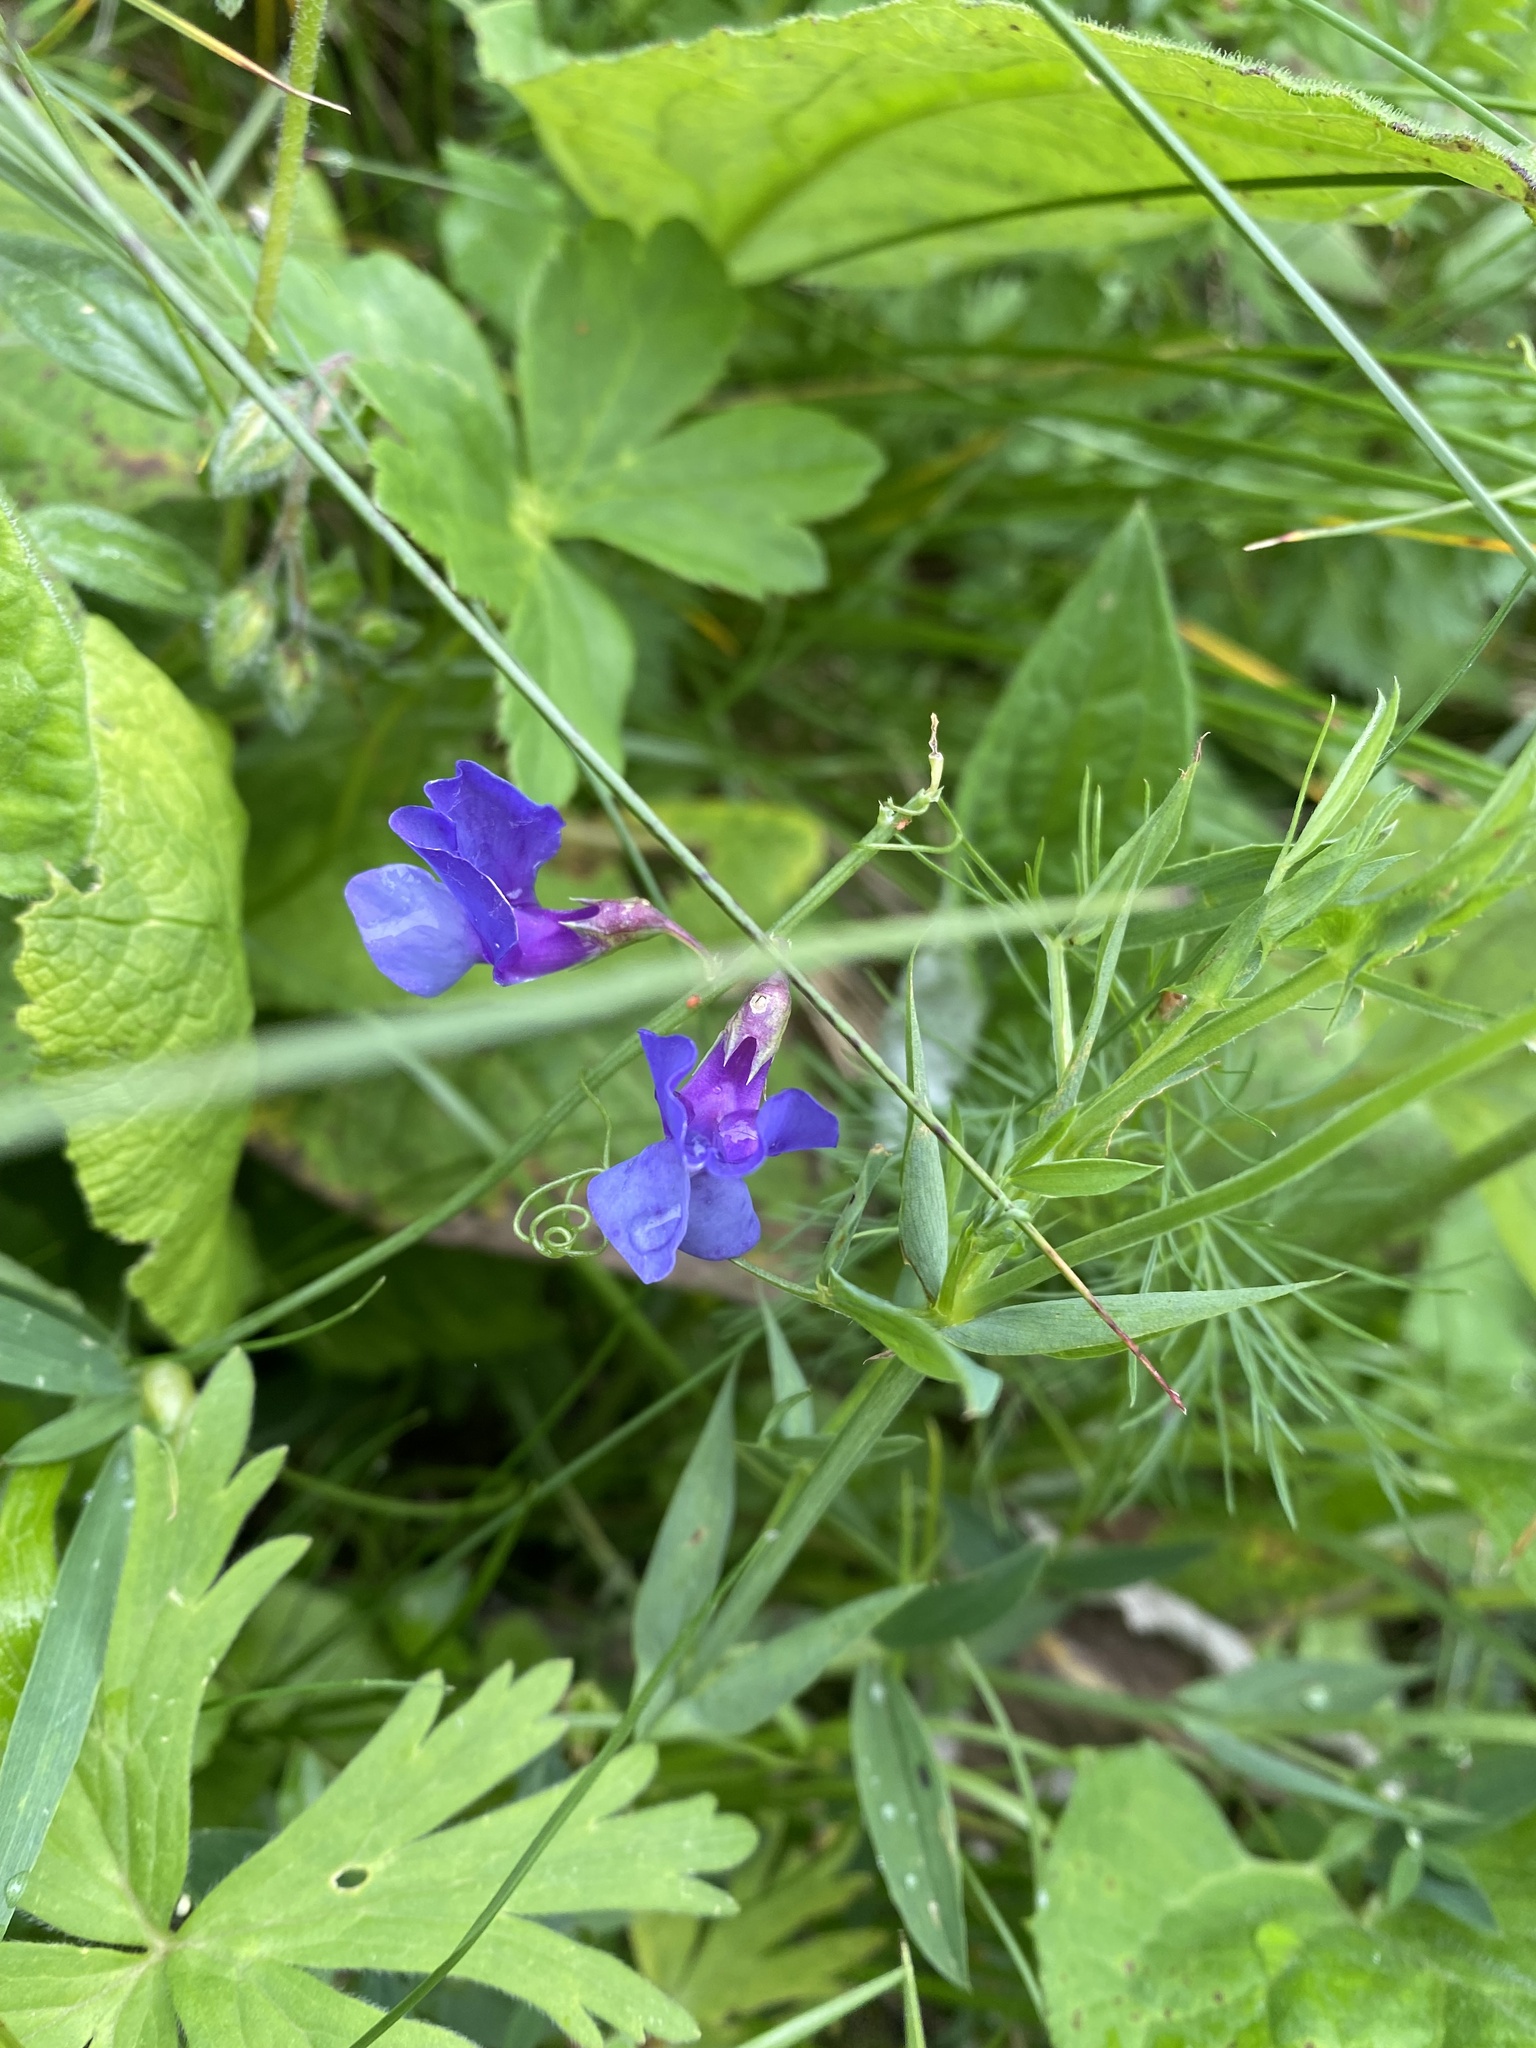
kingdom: Plantae
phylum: Tracheophyta
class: Magnoliopsida
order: Fabales
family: Fabaceae
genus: Lathyrus
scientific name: Lathyrus cyaneus
